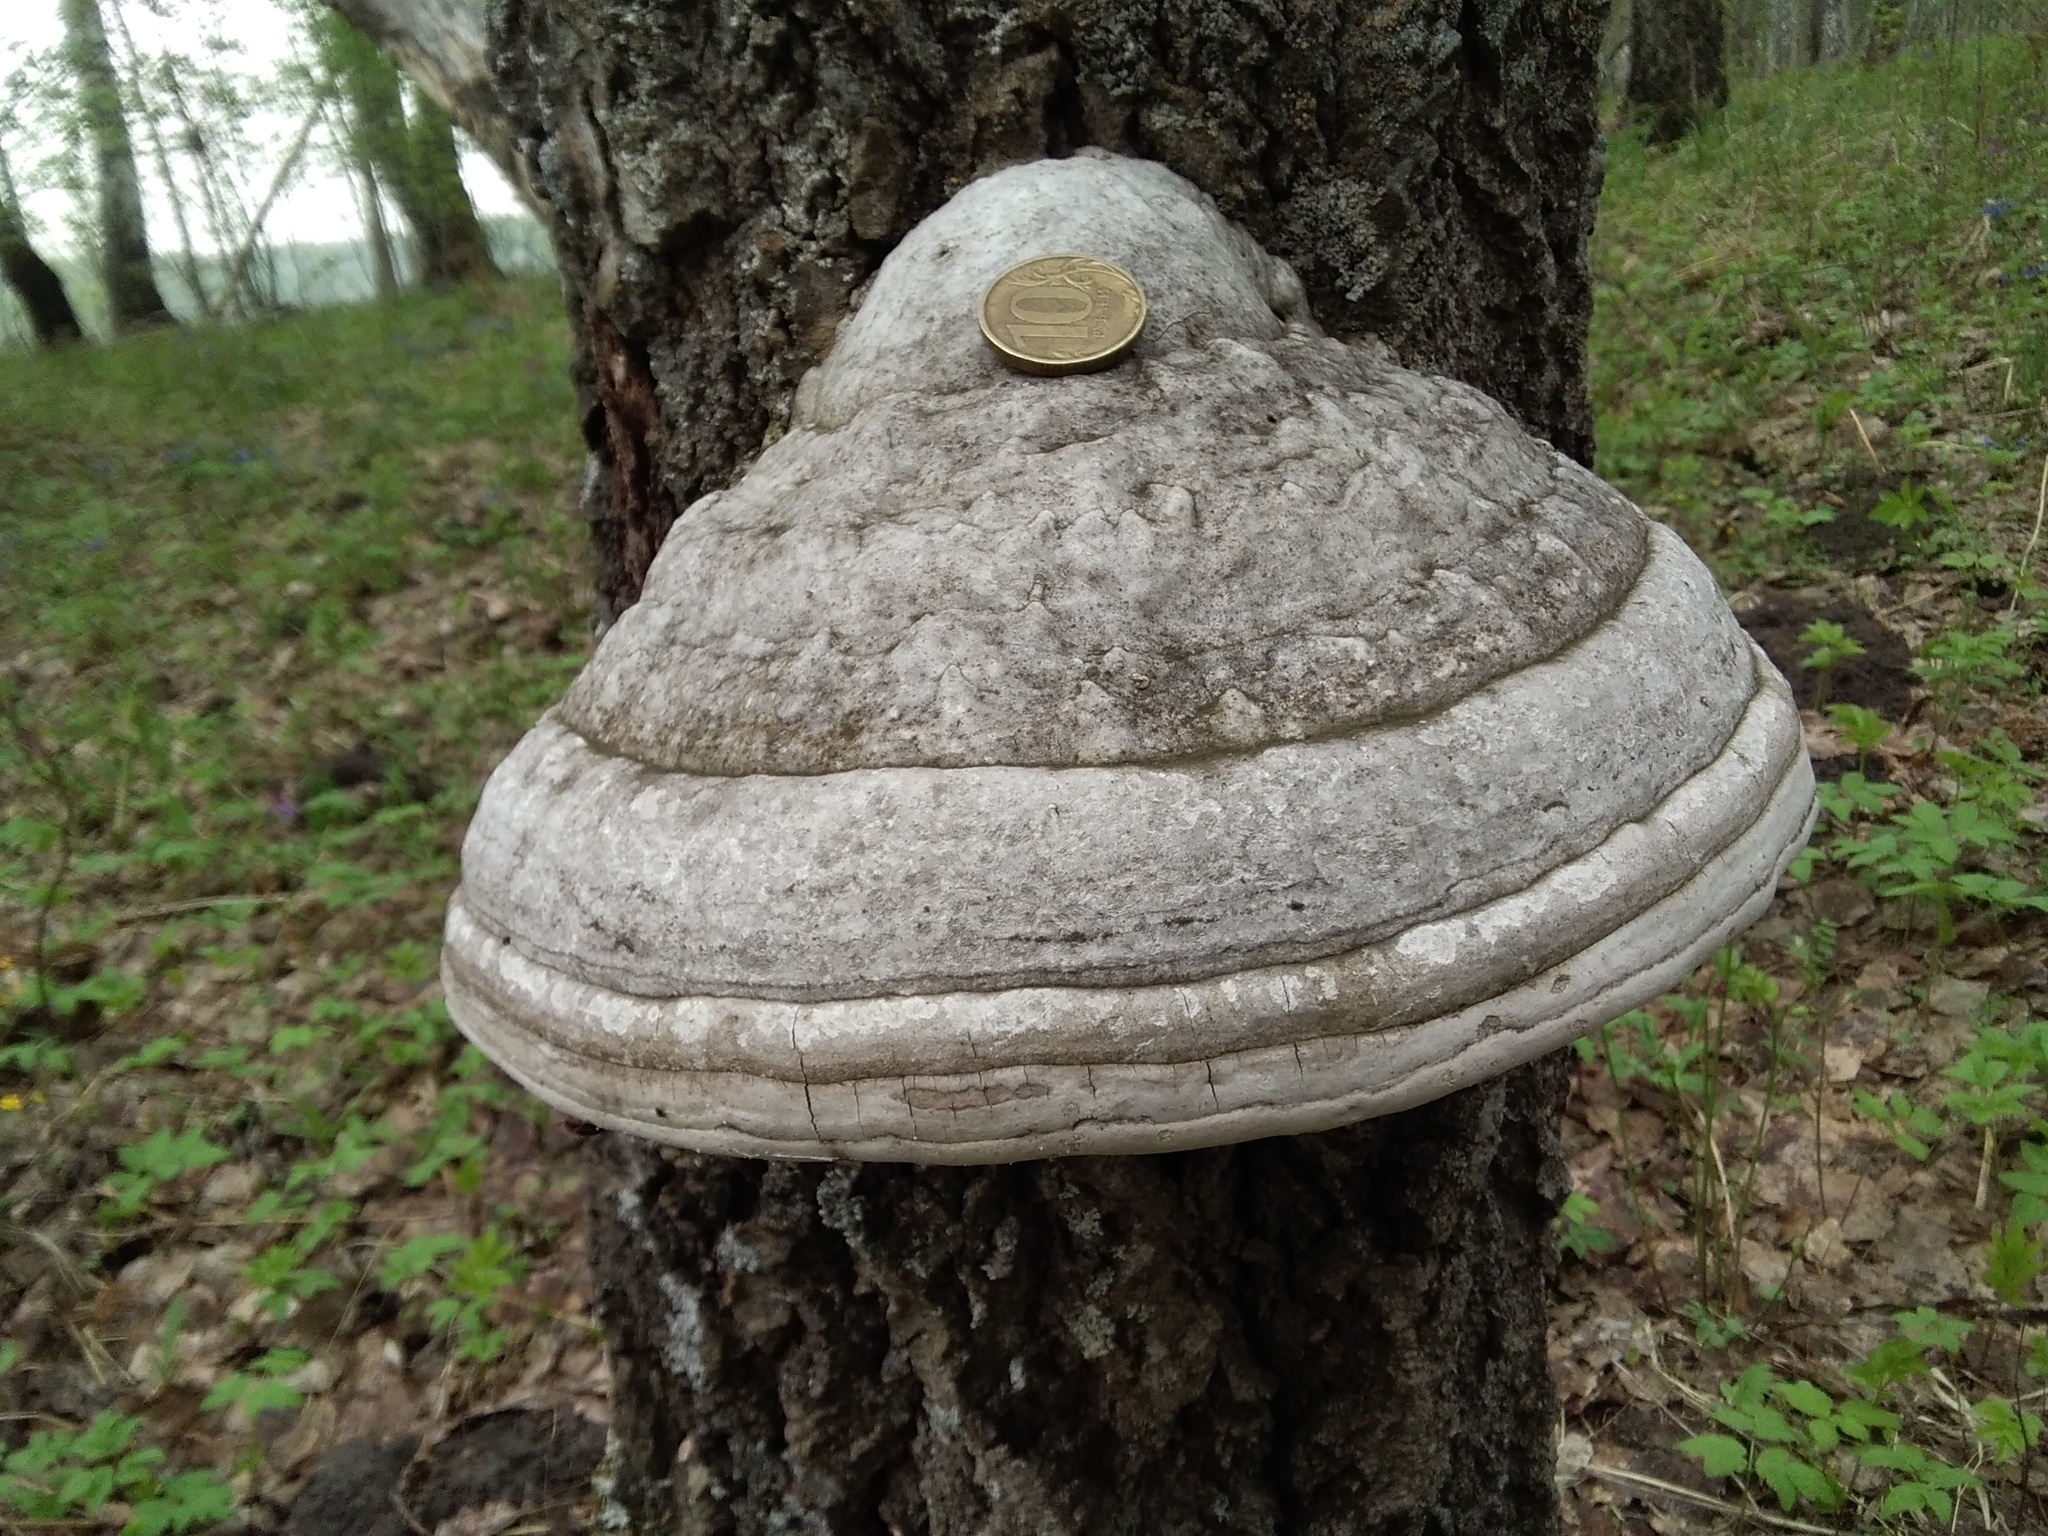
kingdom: Fungi
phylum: Basidiomycota
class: Agaricomycetes
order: Polyporales
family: Polyporaceae
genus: Fomes
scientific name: Fomes fomentarius
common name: Hoof fungus
